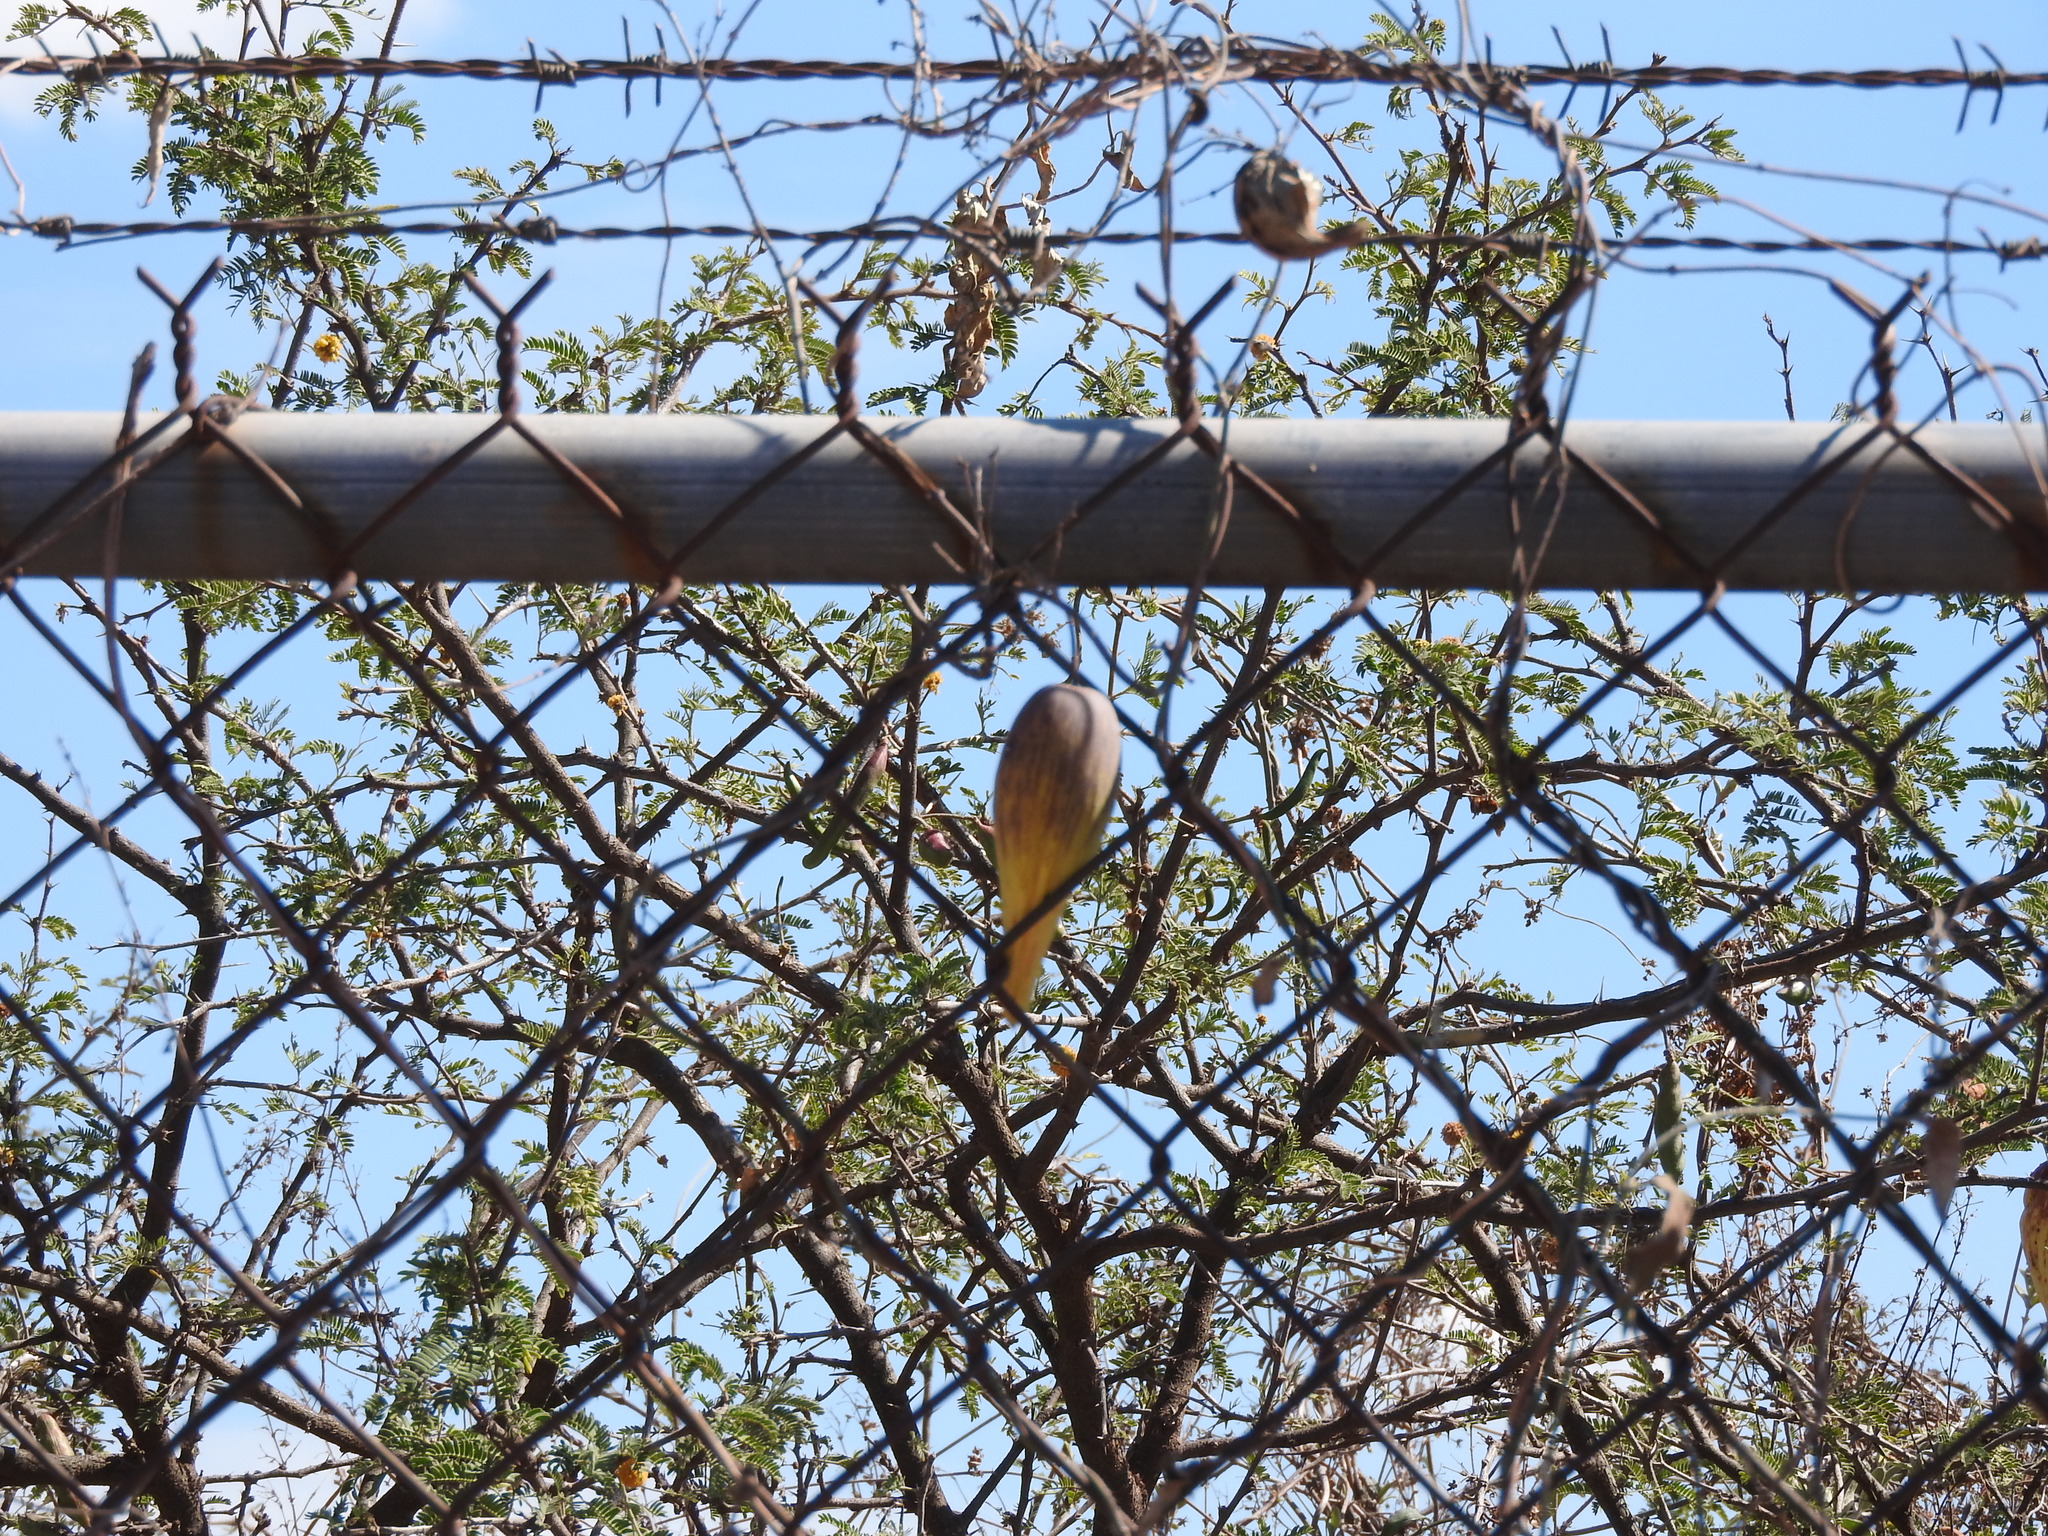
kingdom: Plantae
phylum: Tracheophyta
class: Magnoliopsida
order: Gentianales
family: Apocynaceae
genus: Funastrum
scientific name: Funastrum pannosum
